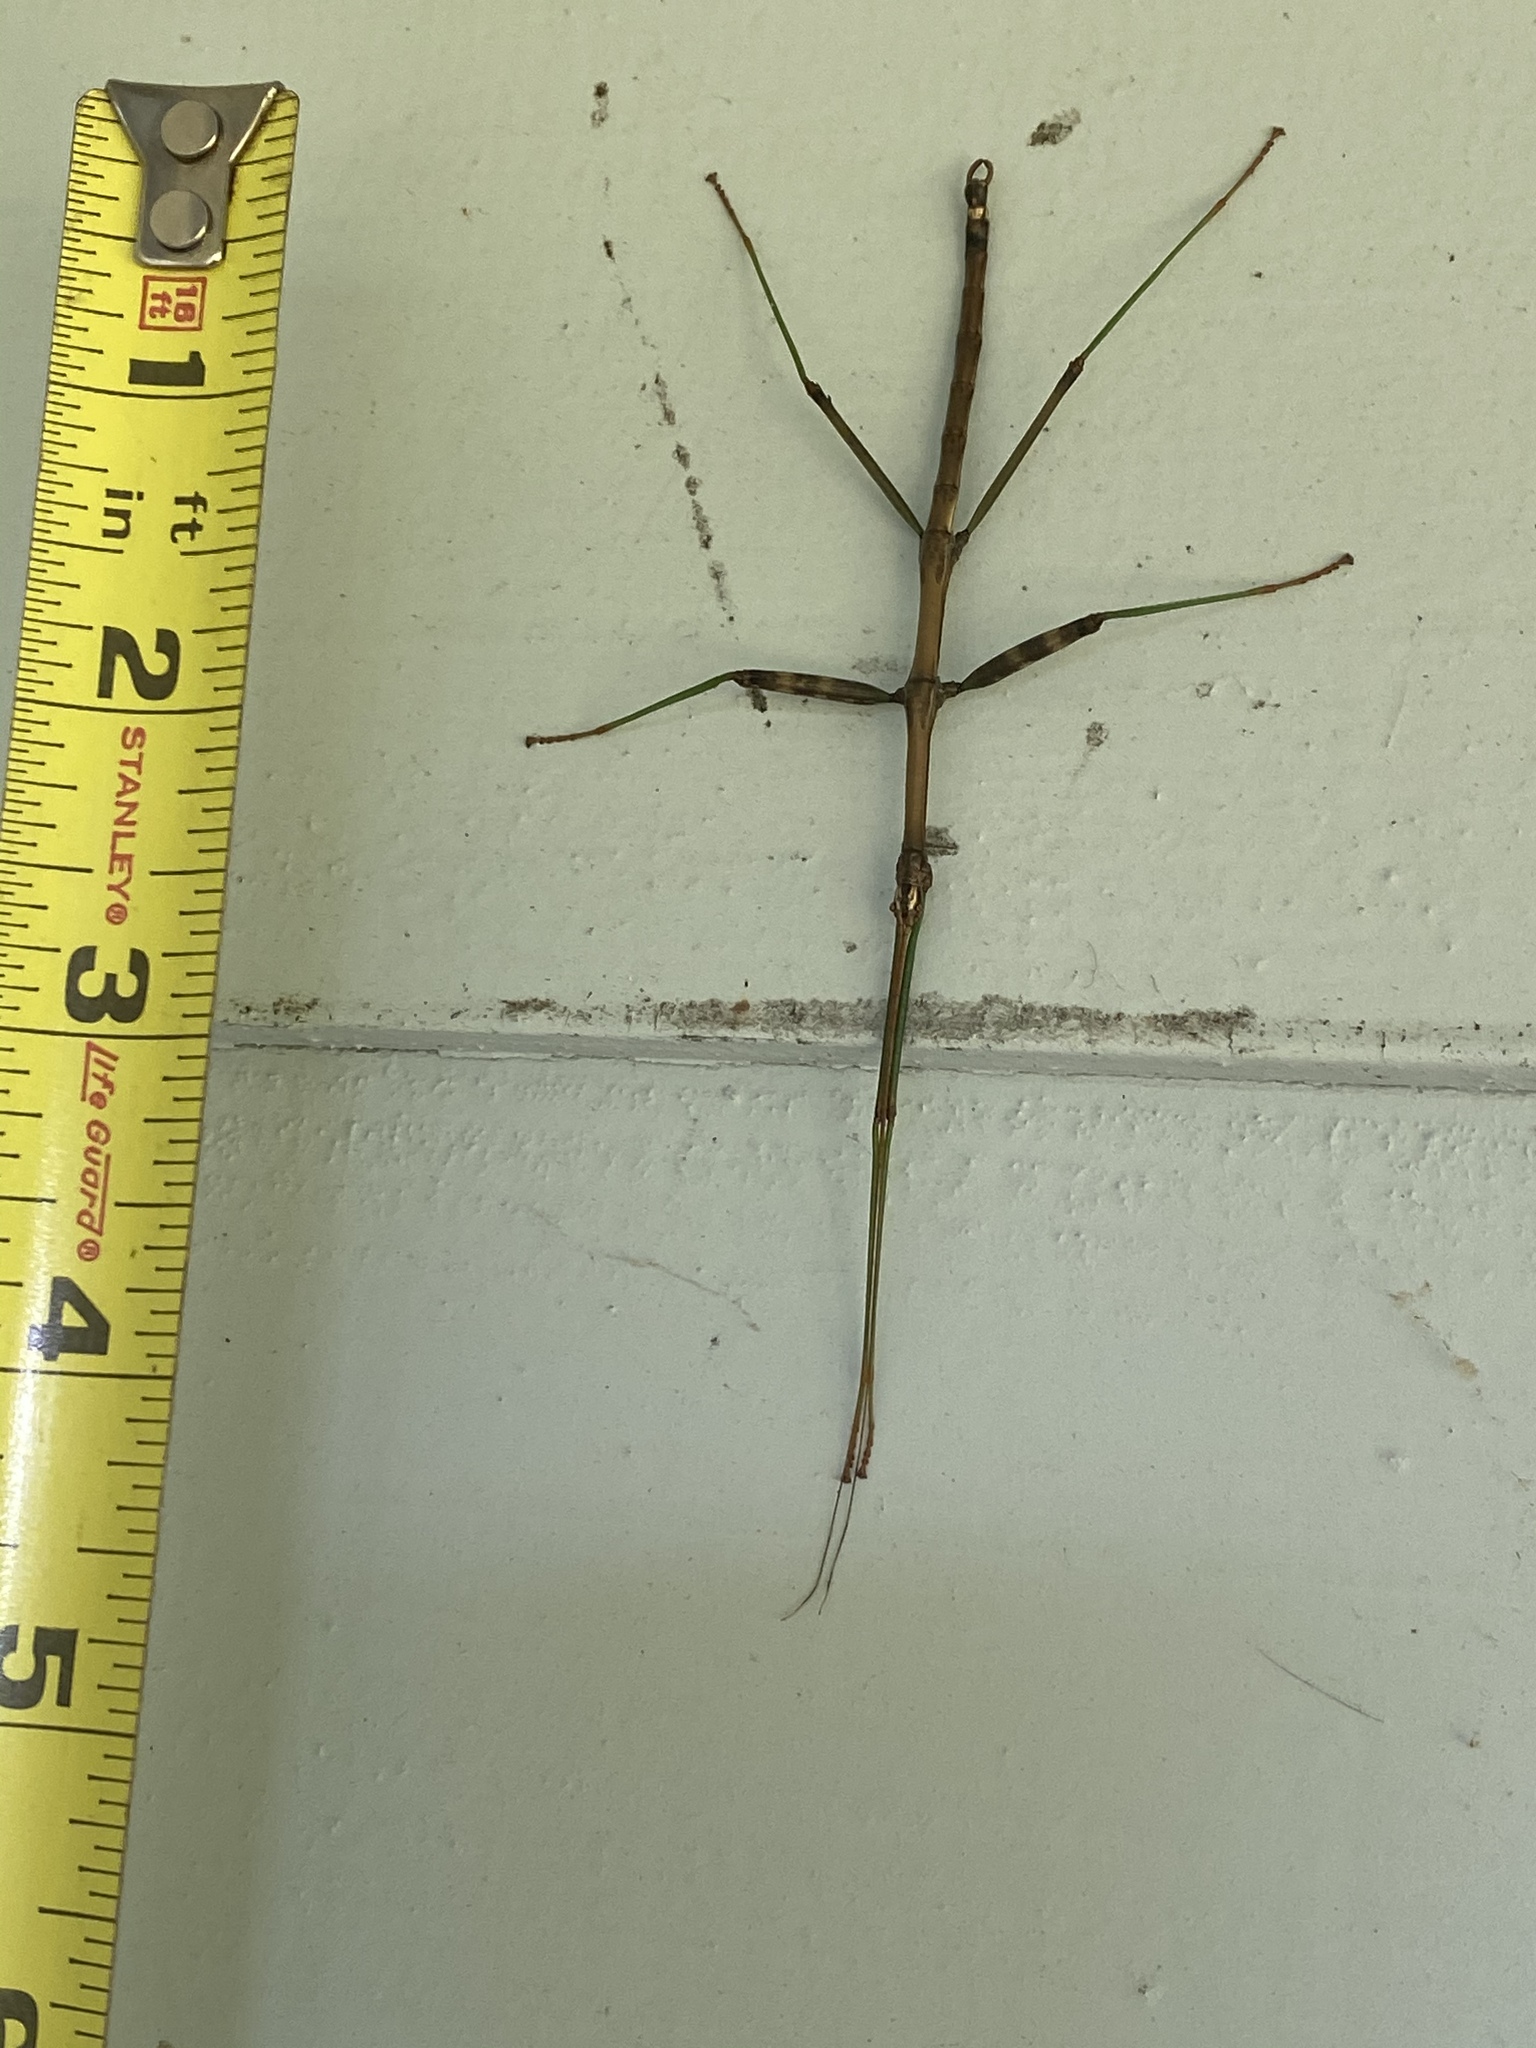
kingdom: Animalia
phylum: Arthropoda
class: Insecta
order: Phasmida
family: Diapheromeridae
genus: Diapheromera
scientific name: Diapheromera femorata
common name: Common american walkingstick
